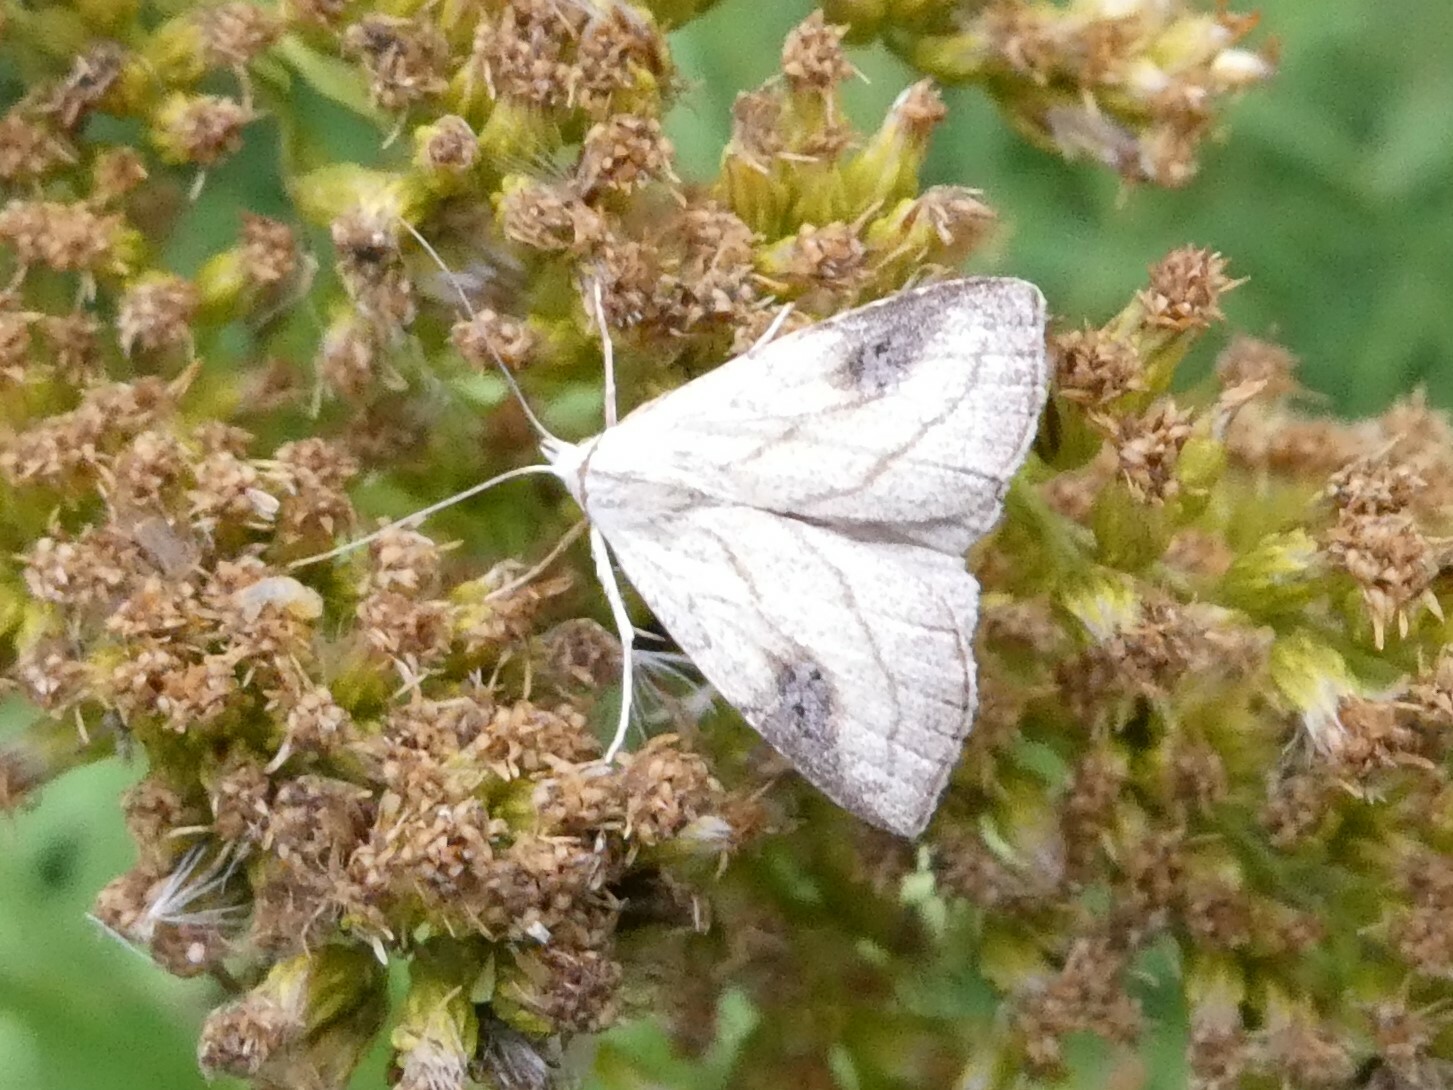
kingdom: Animalia
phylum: Arthropoda
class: Insecta
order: Lepidoptera
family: Erebidae
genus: Rivula
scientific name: Rivula propinqualis
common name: Spotted grass moth
